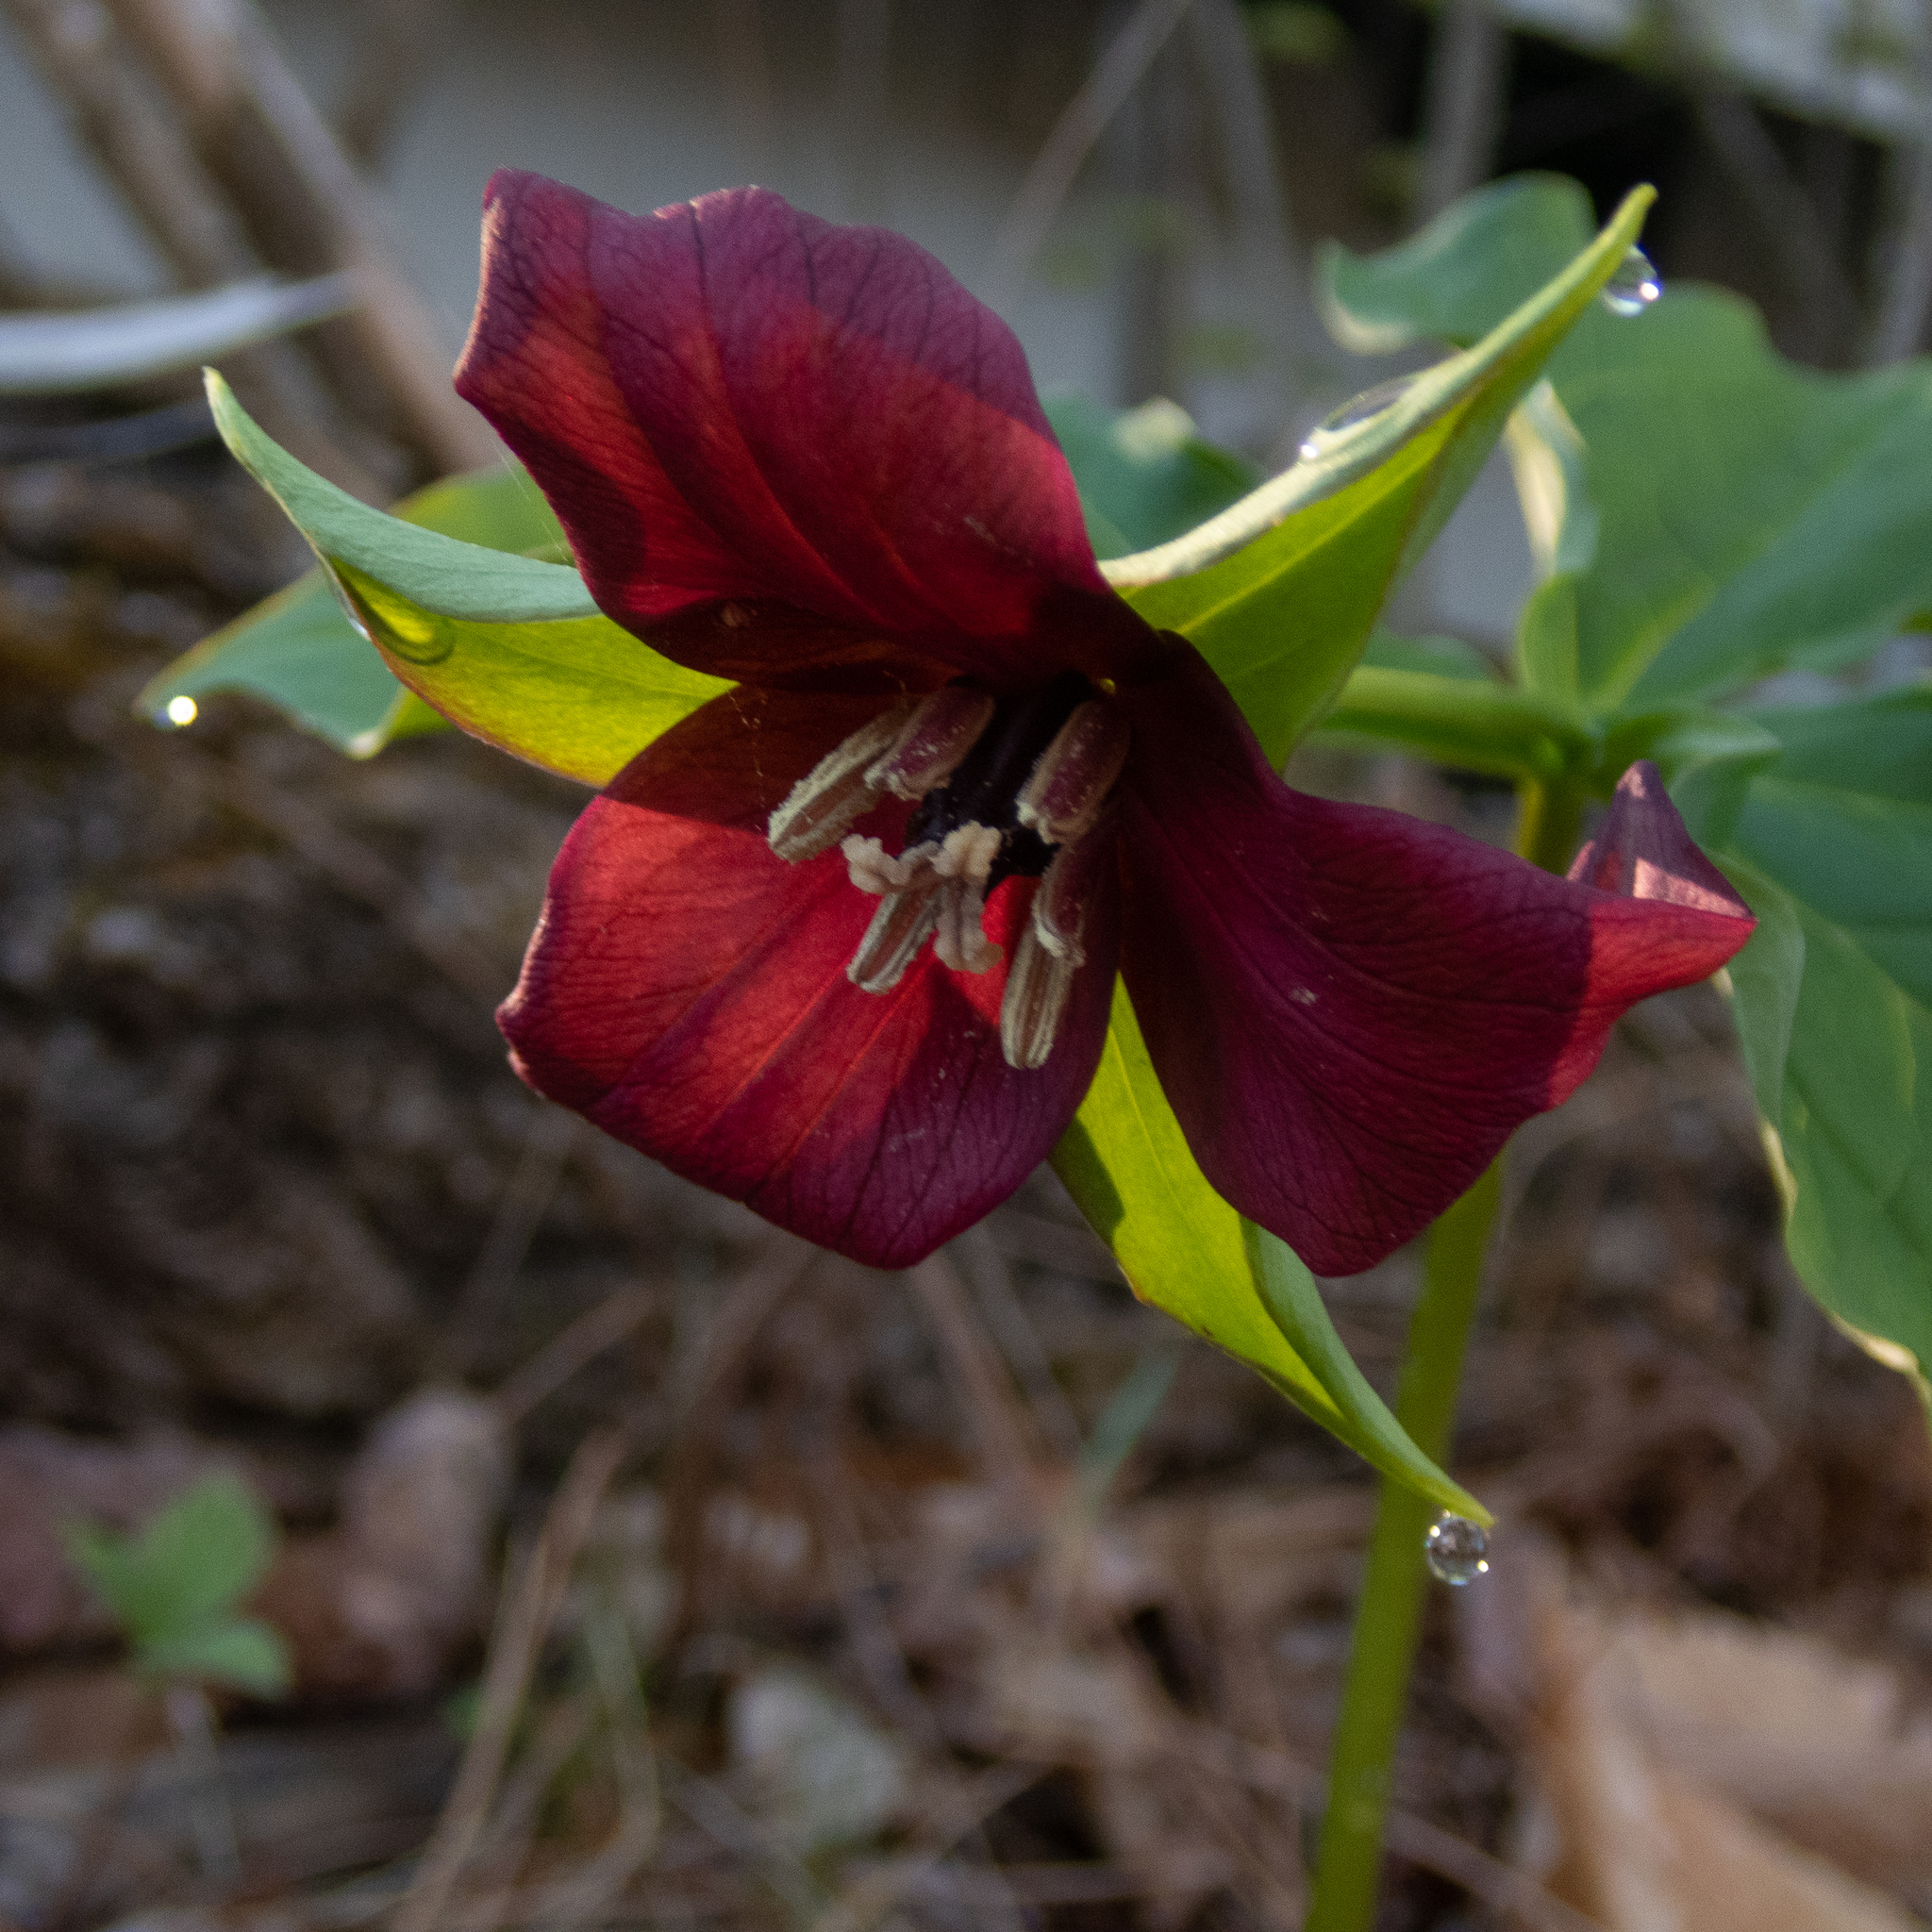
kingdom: Plantae
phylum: Tracheophyta
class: Liliopsida
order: Liliales
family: Melanthiaceae
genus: Trillium
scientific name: Trillium erectum
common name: Purple trillium
